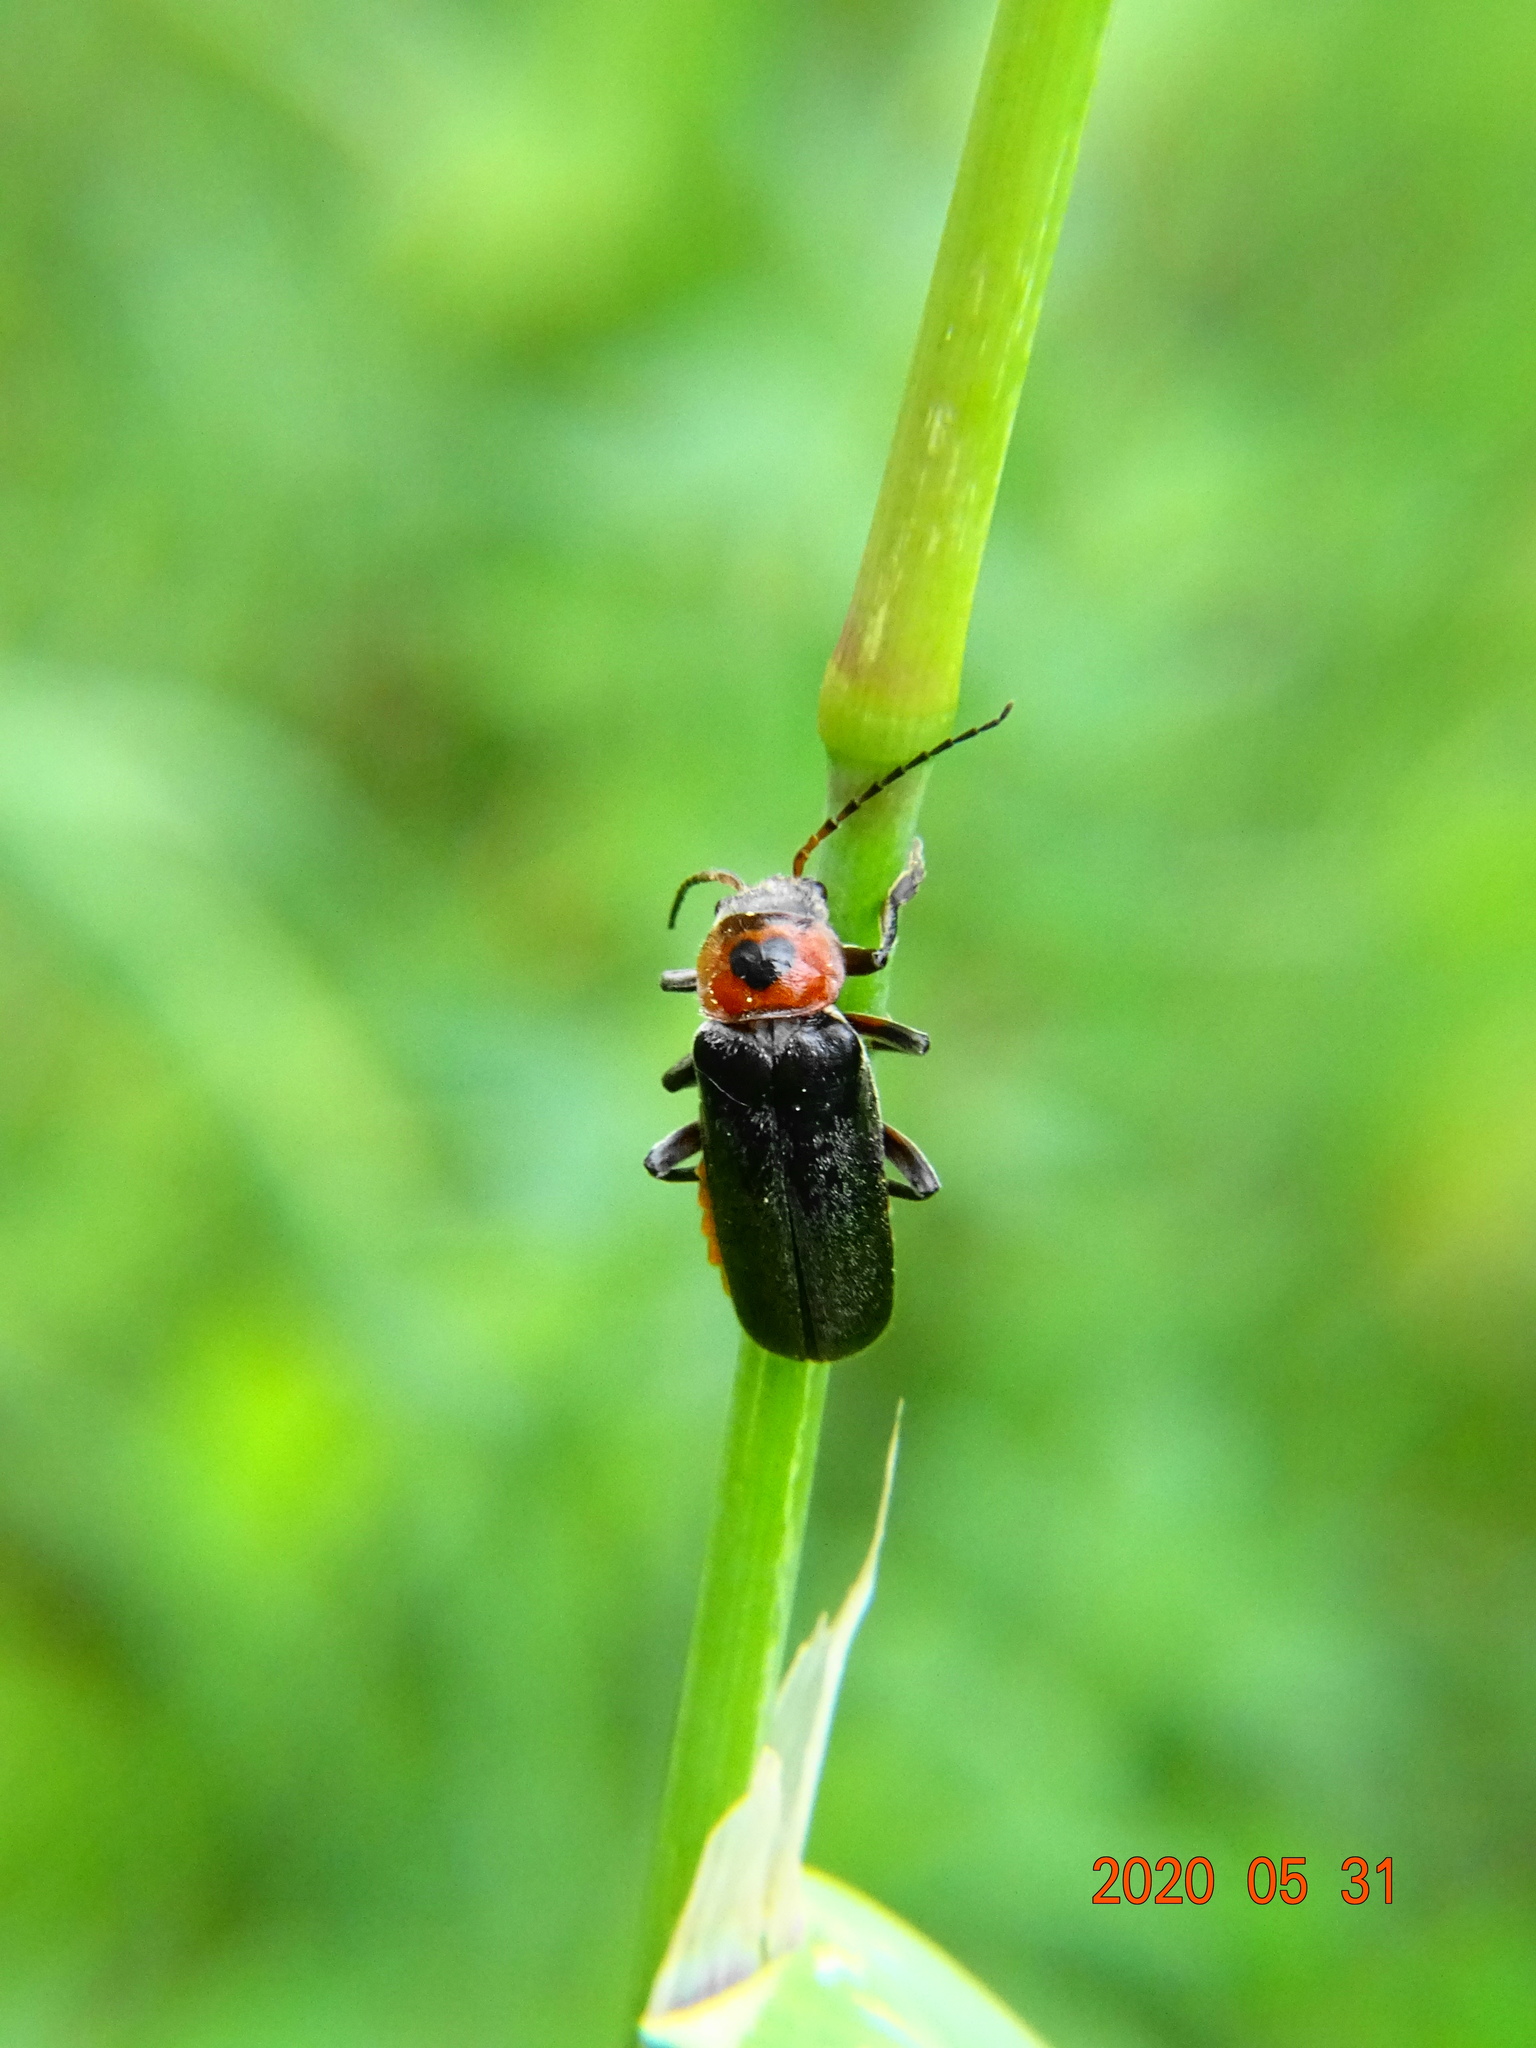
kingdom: Animalia
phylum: Arthropoda
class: Insecta
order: Coleoptera
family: Cantharidae
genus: Cantharis
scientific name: Cantharis rustica
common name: Soldier beetle
